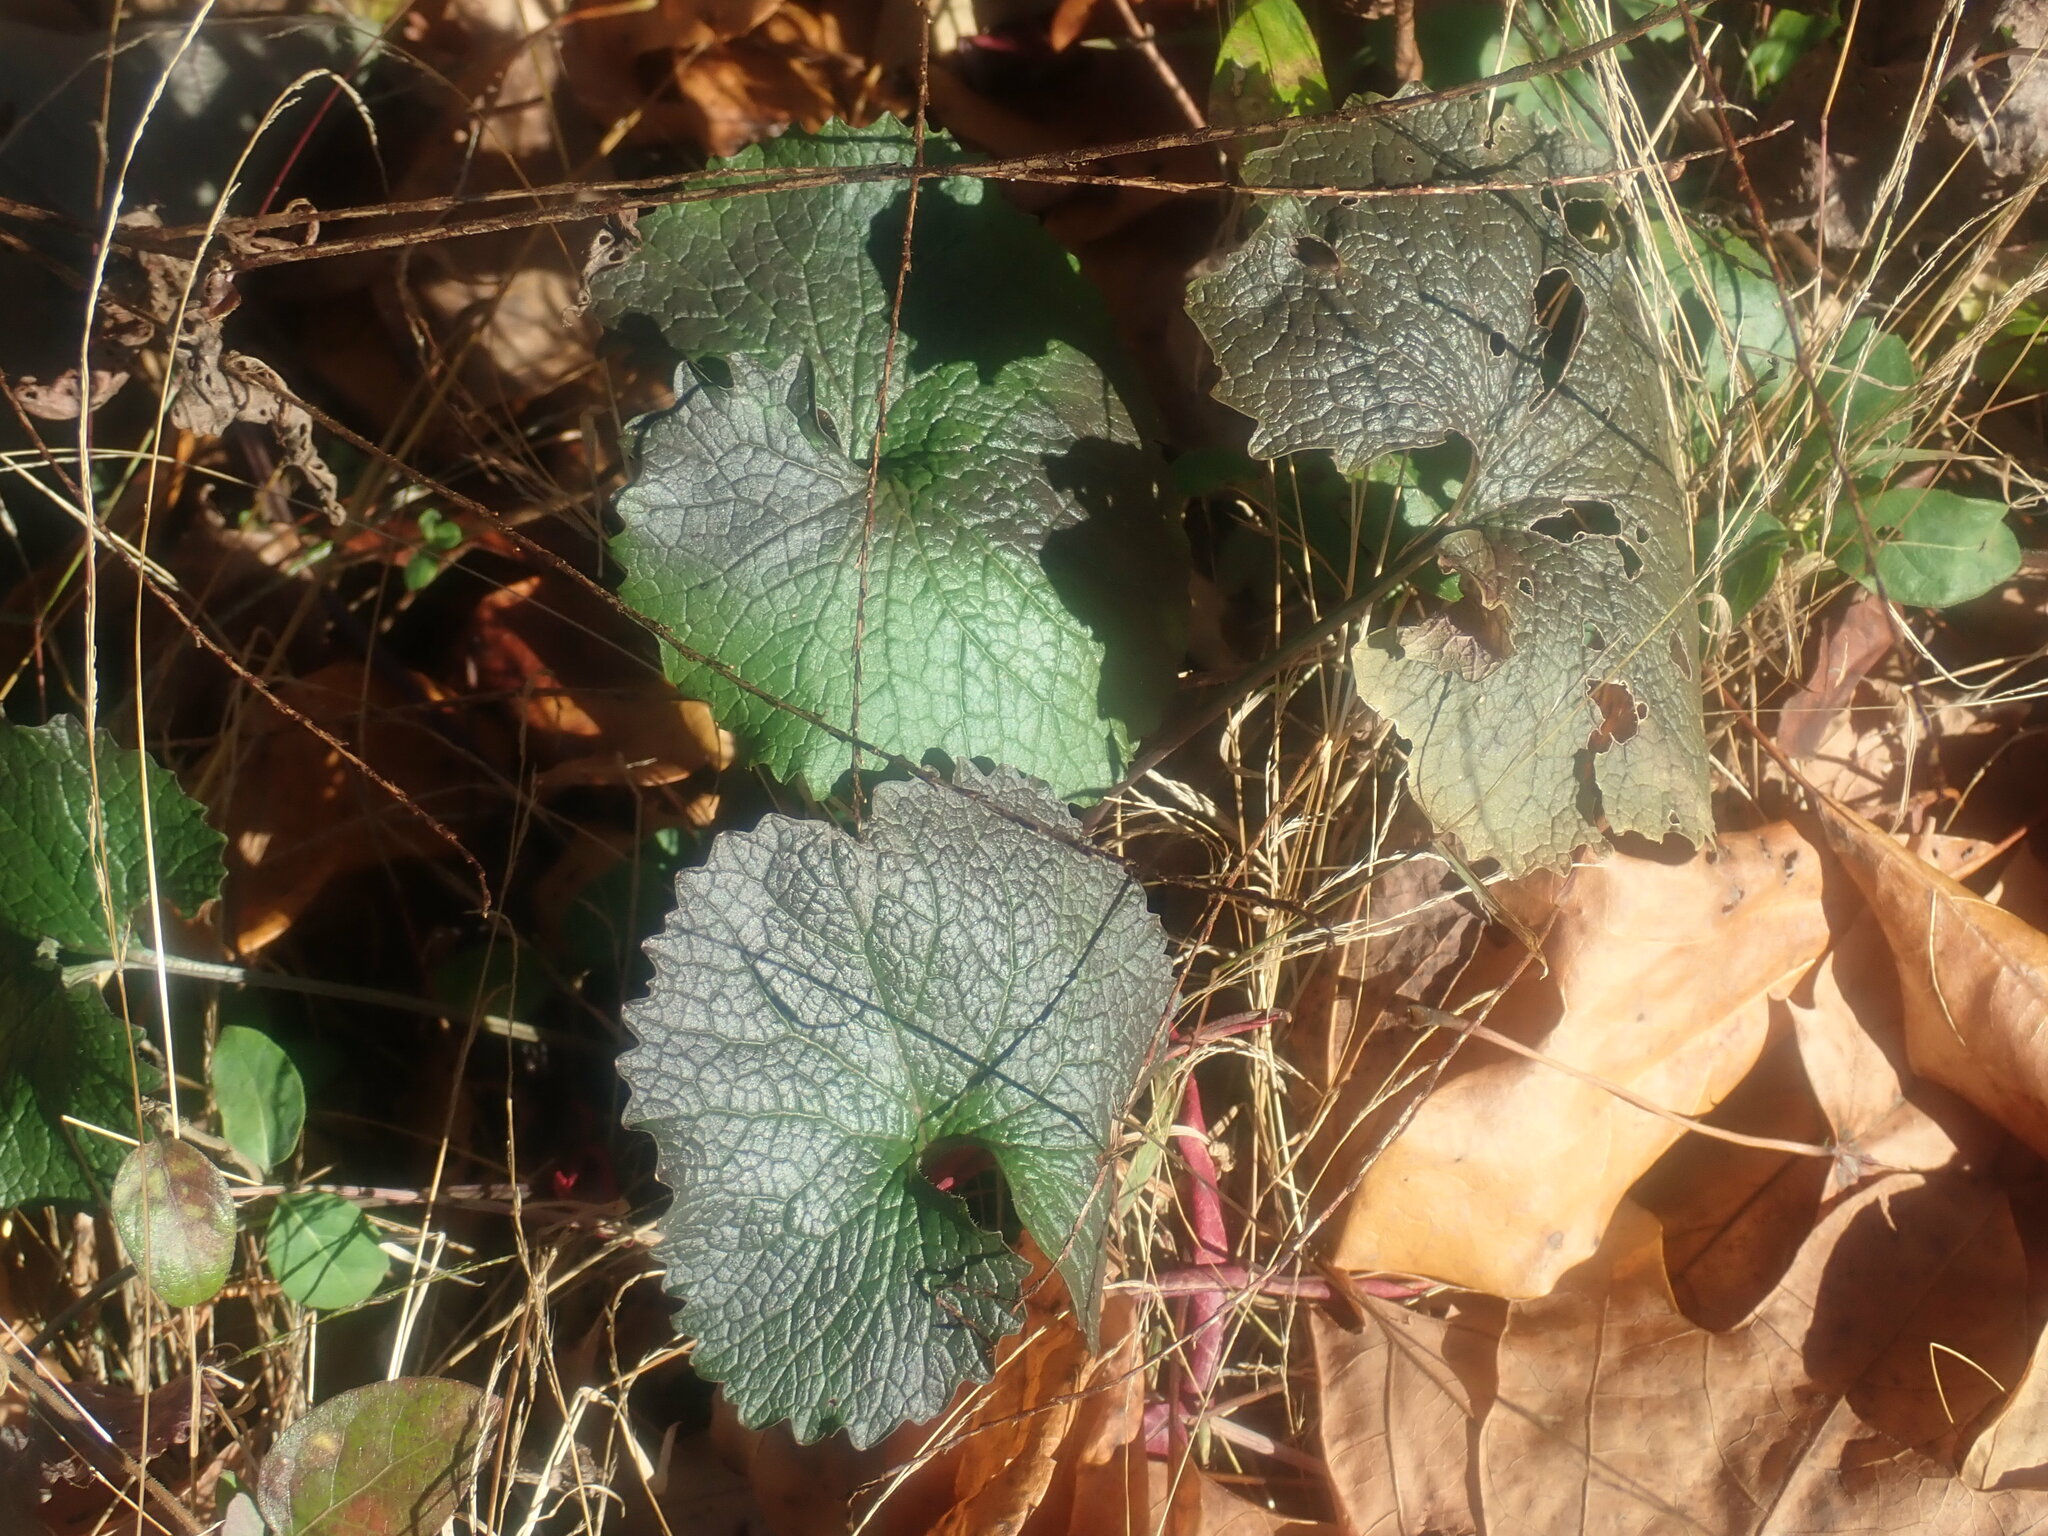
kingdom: Plantae
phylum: Tracheophyta
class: Magnoliopsida
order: Brassicales
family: Brassicaceae
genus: Alliaria
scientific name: Alliaria petiolata
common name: Garlic mustard
